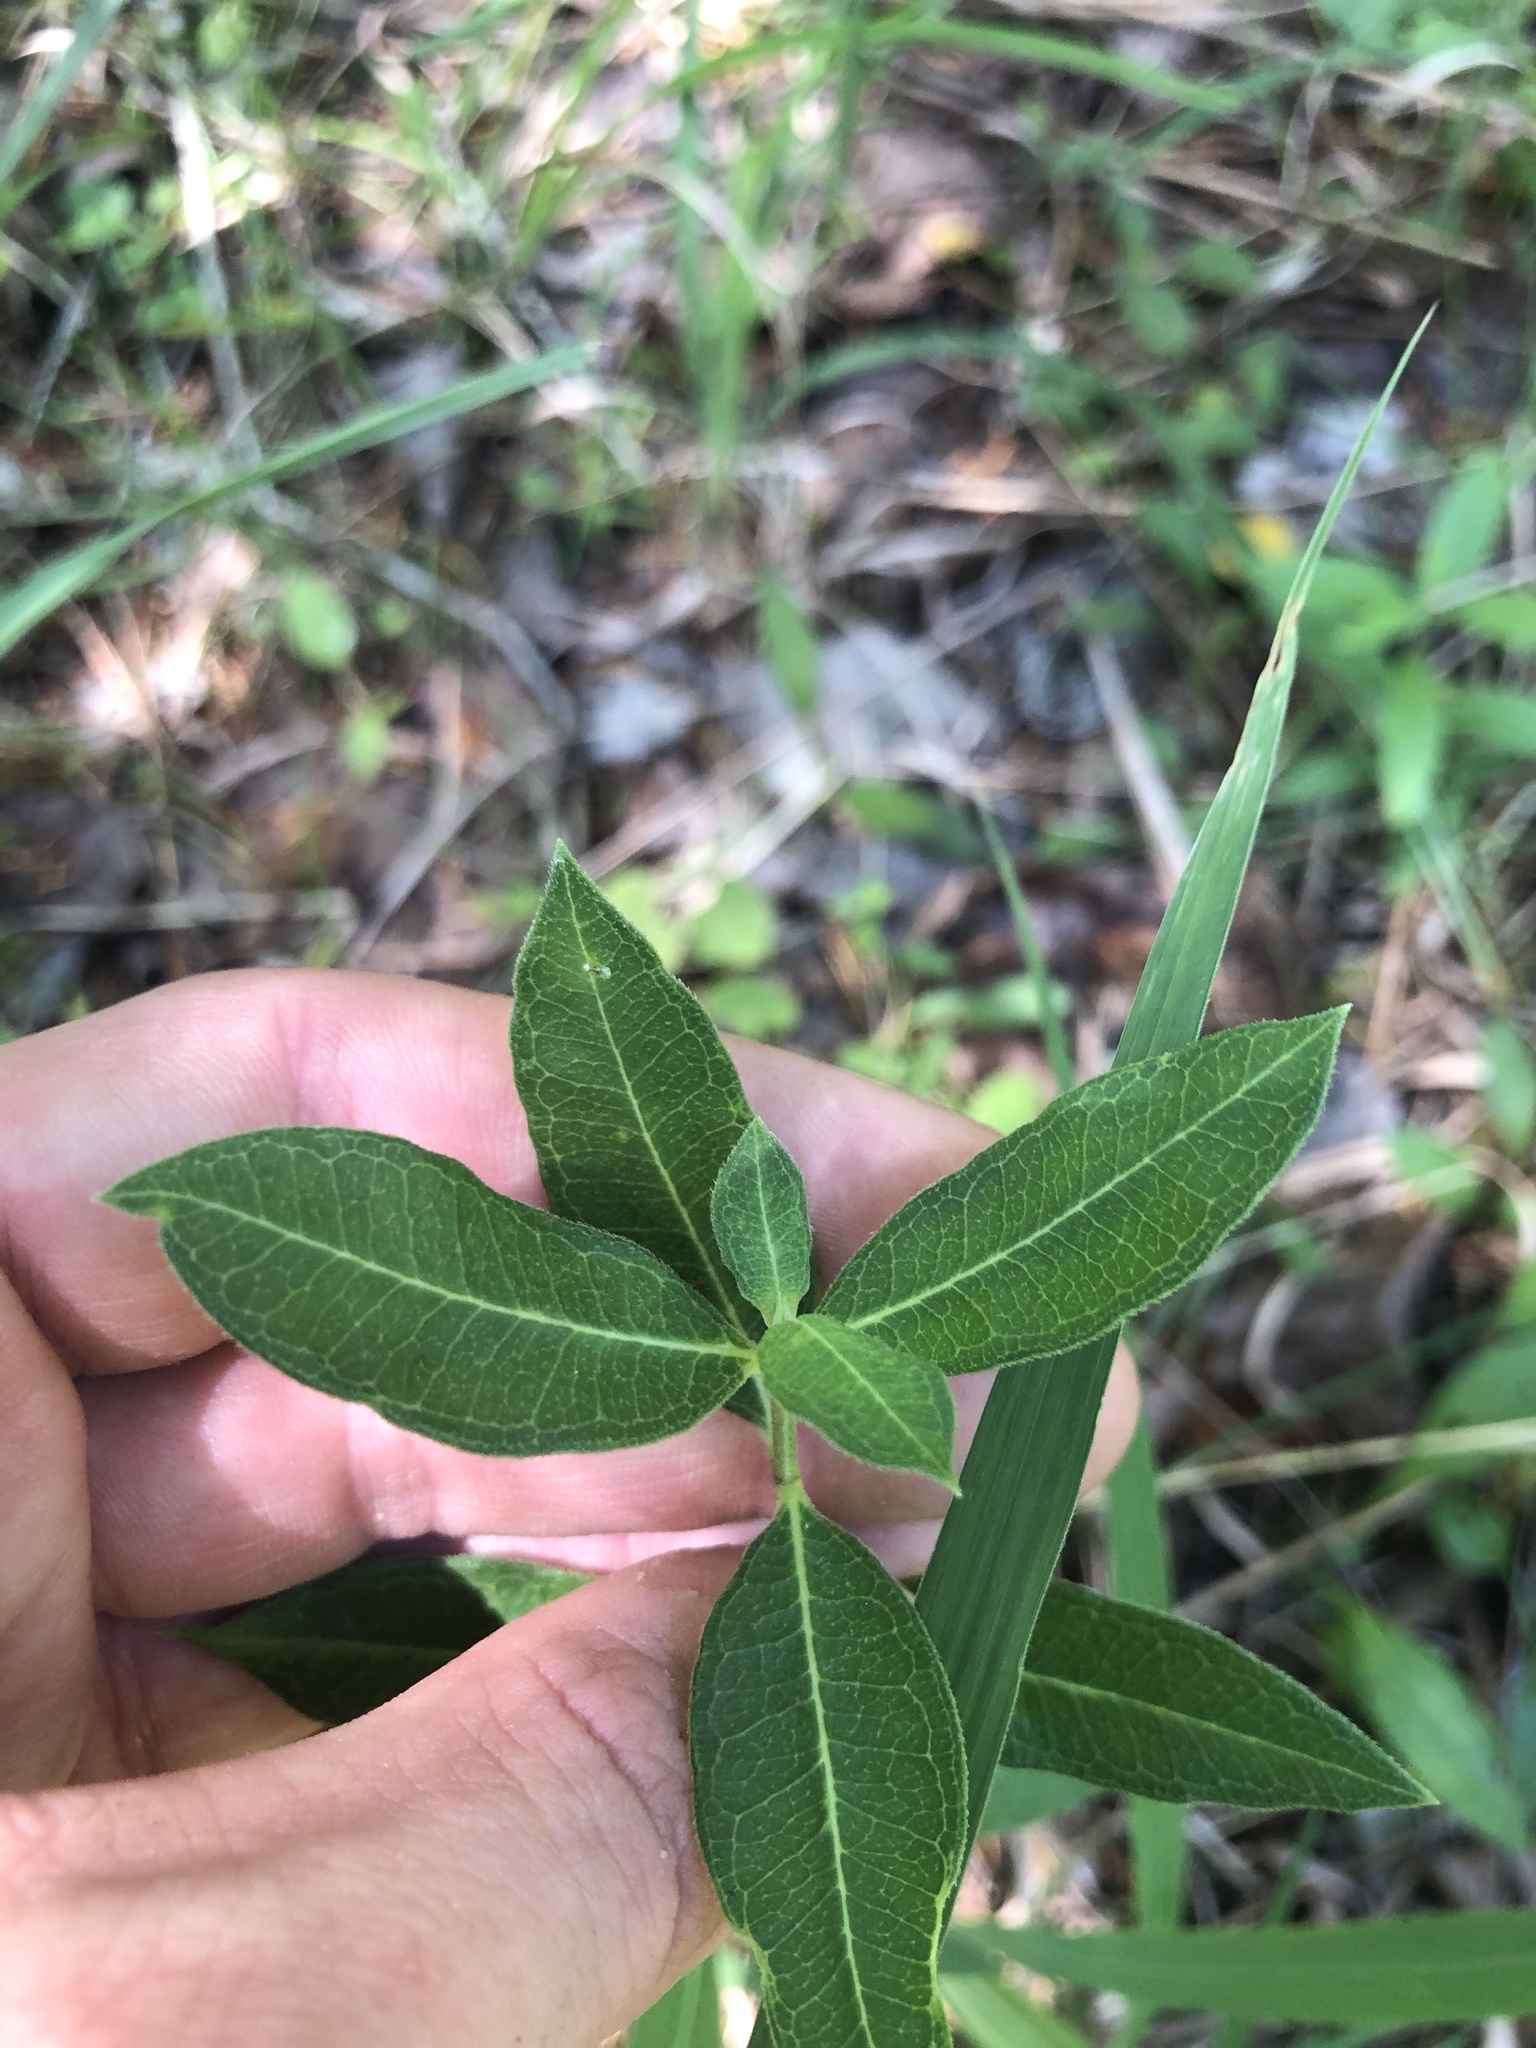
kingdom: Plantae
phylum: Tracheophyta
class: Magnoliopsida
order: Gentianales
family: Apocynaceae
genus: Asclepias
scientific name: Asclepias viridiflora
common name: Green comet milkweed
